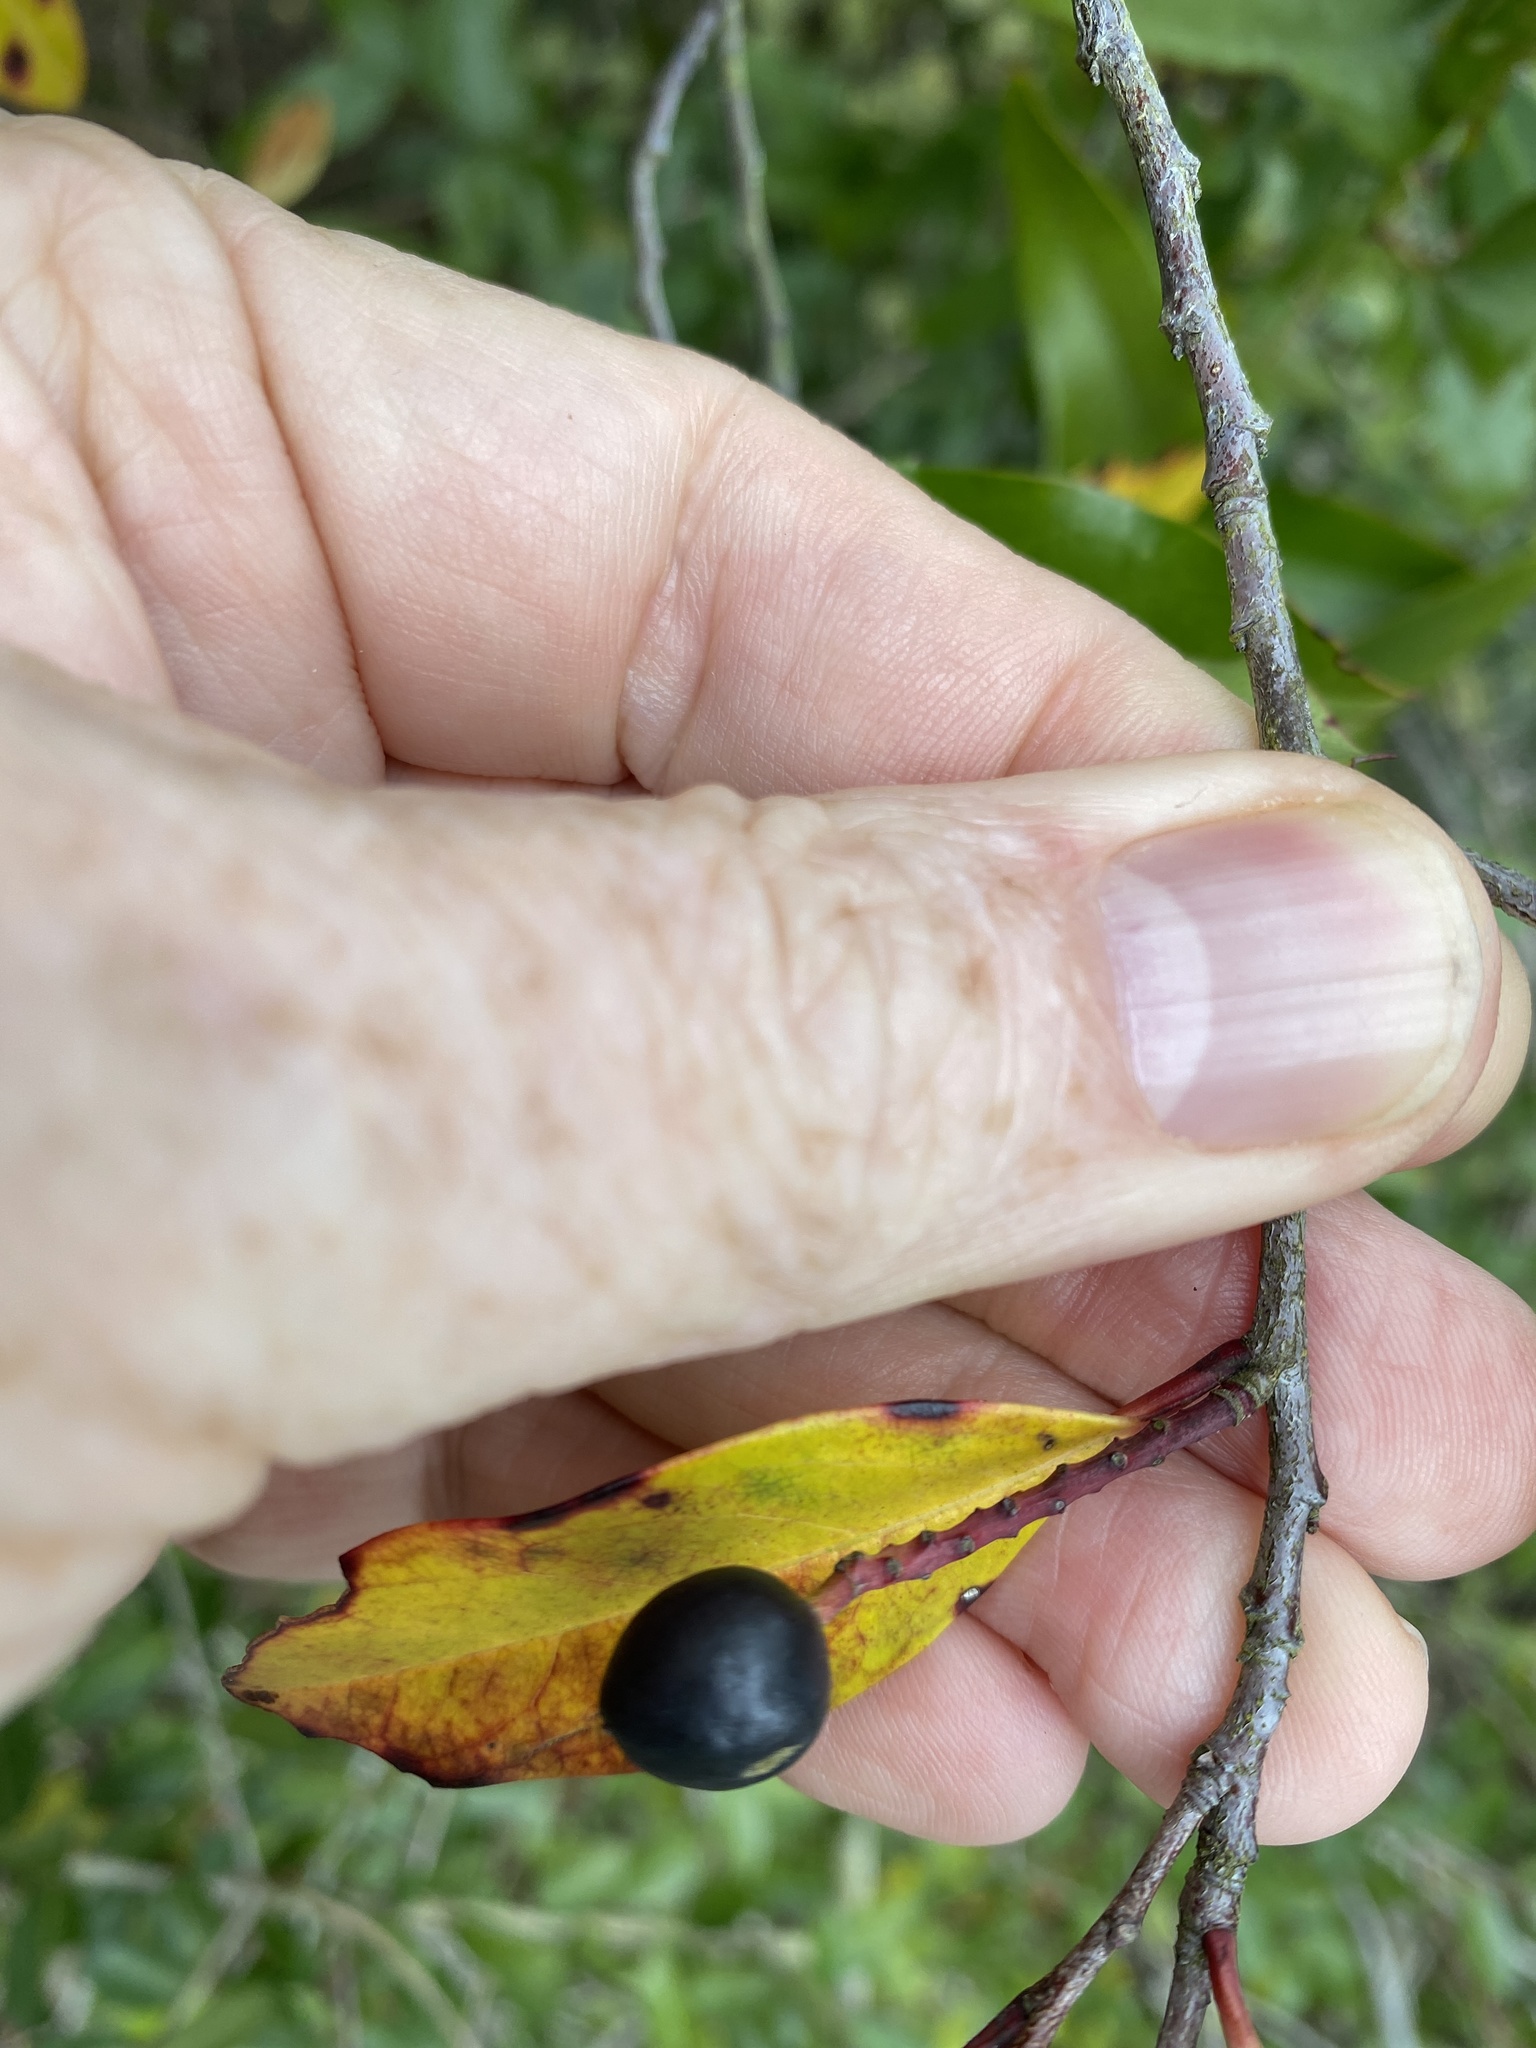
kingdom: Plantae
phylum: Tracheophyta
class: Magnoliopsida
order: Rosales
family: Rosaceae
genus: Prunus
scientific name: Prunus caroliniana
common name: Carolina laurel cherry
